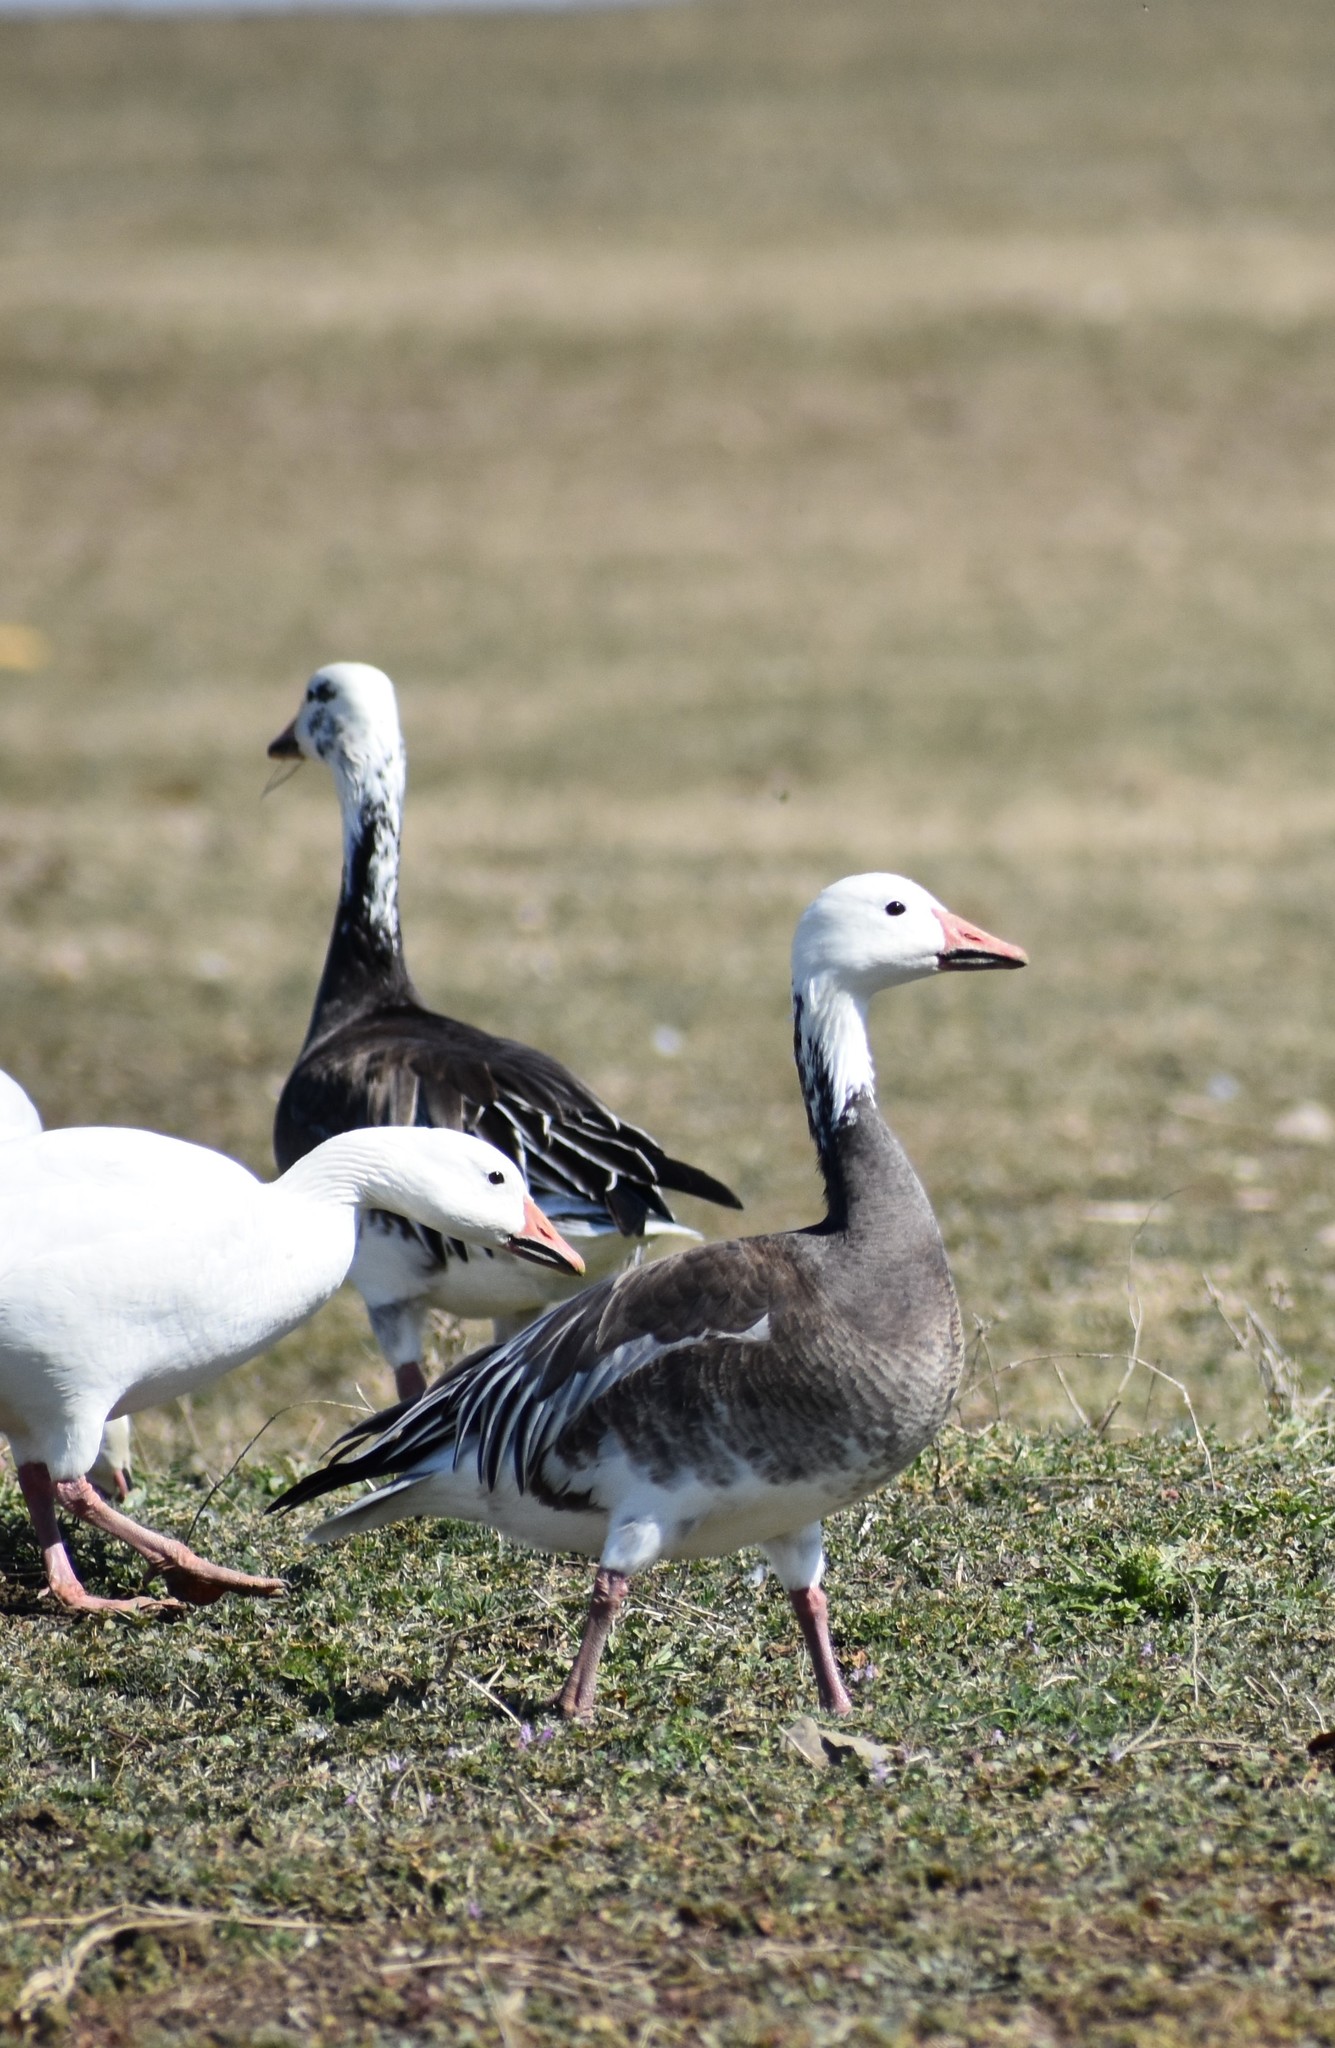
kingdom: Animalia
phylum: Chordata
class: Aves
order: Anseriformes
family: Anatidae
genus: Anser
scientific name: Anser caerulescens
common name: Snow goose
